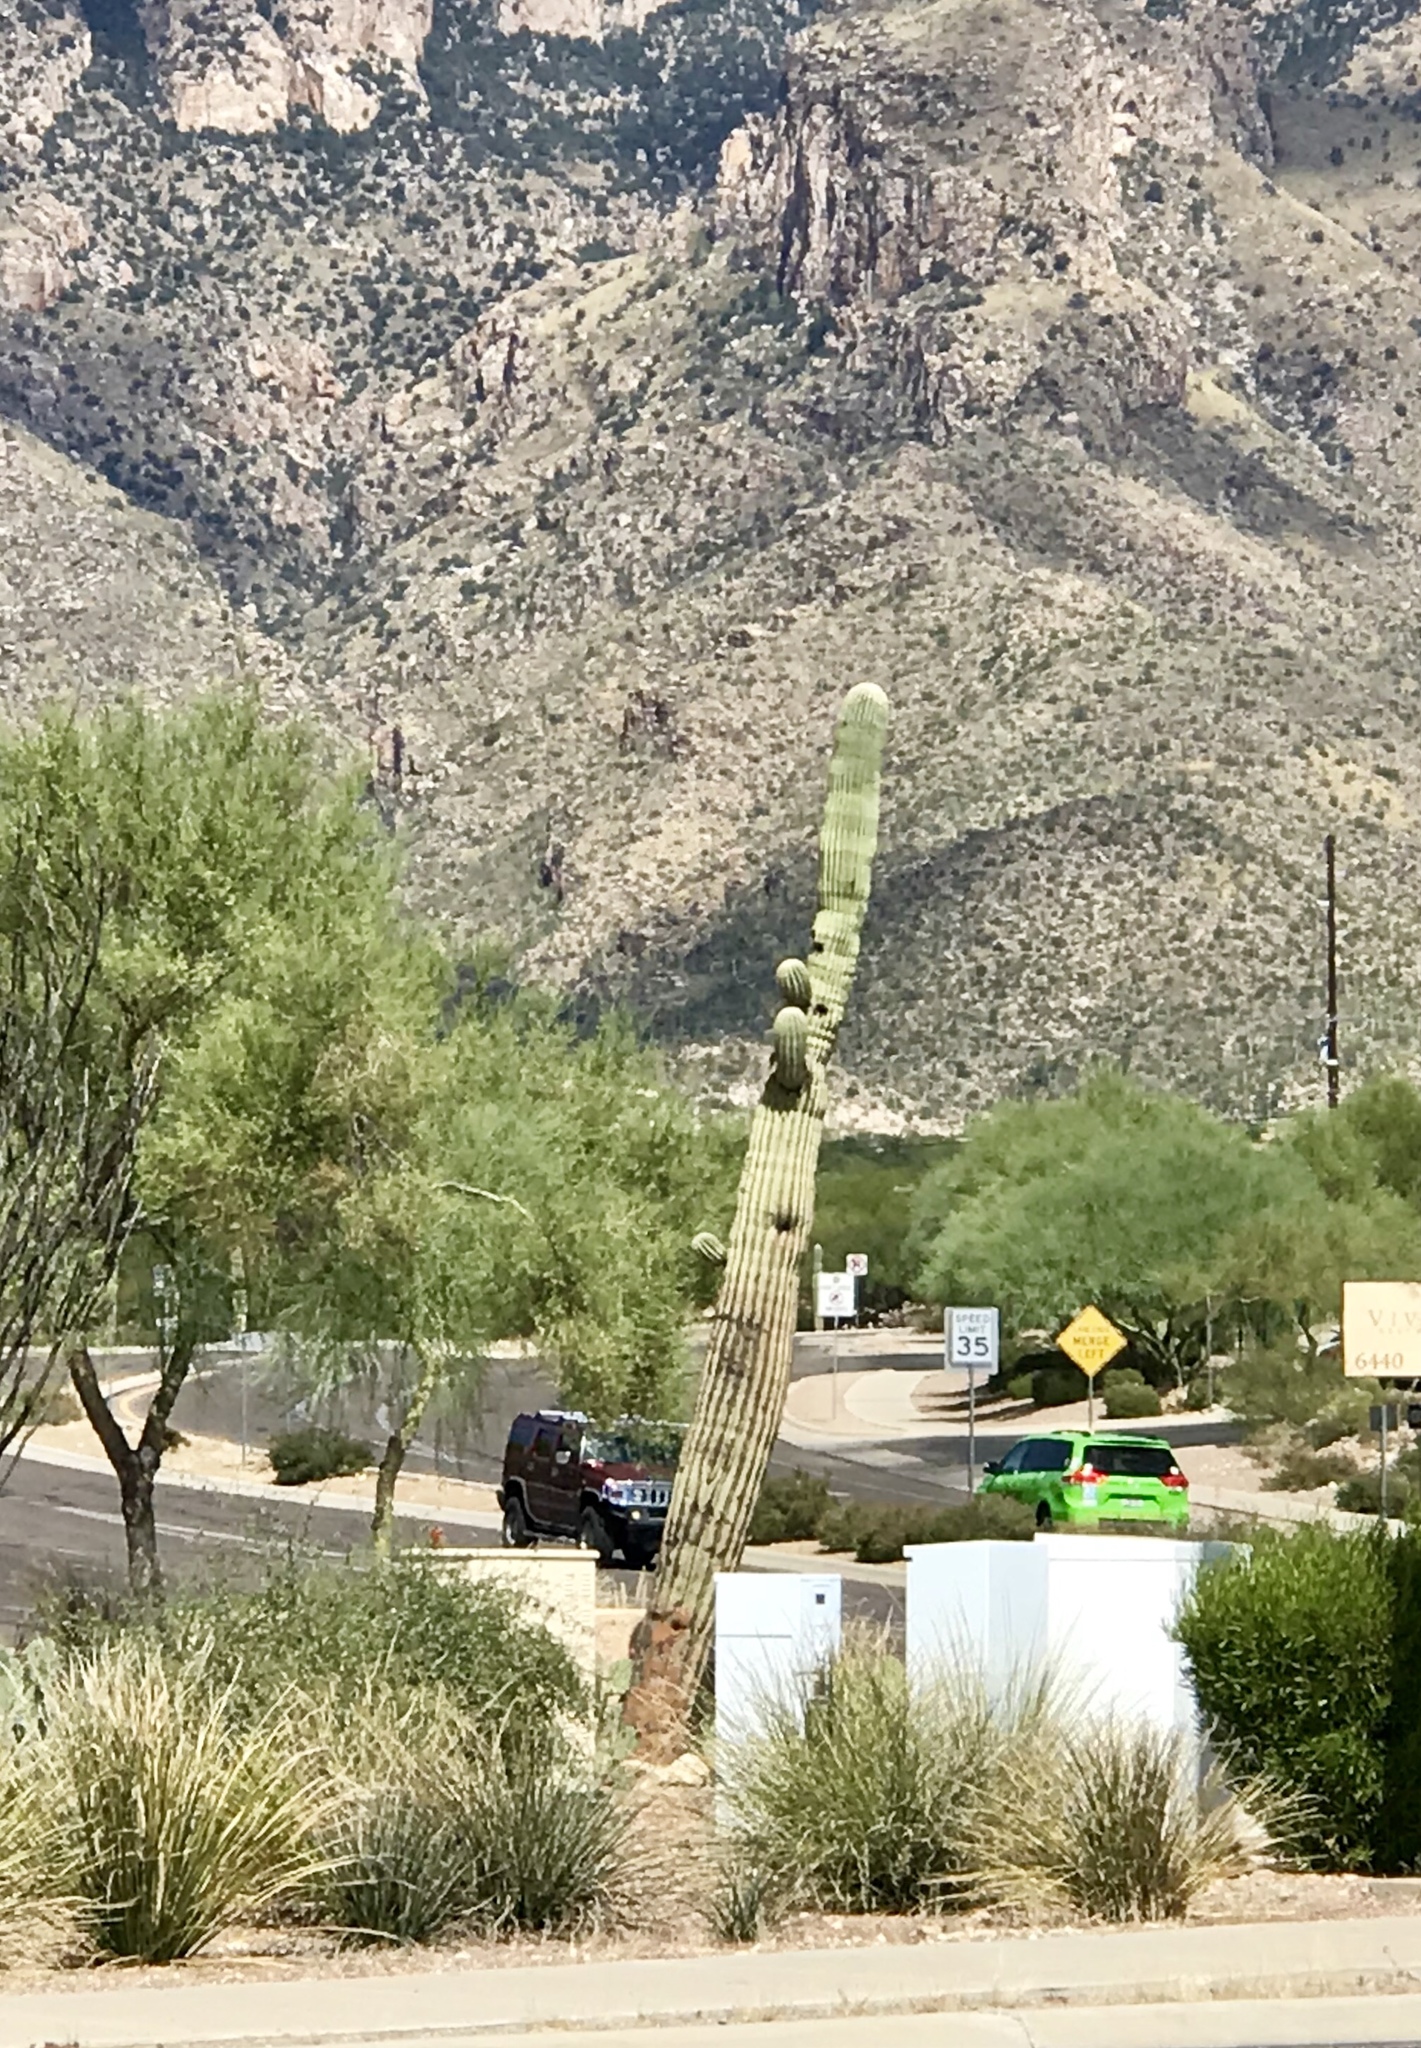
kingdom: Plantae
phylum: Tracheophyta
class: Magnoliopsida
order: Caryophyllales
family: Cactaceae
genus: Carnegiea
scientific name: Carnegiea gigantea
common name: Saguaro
